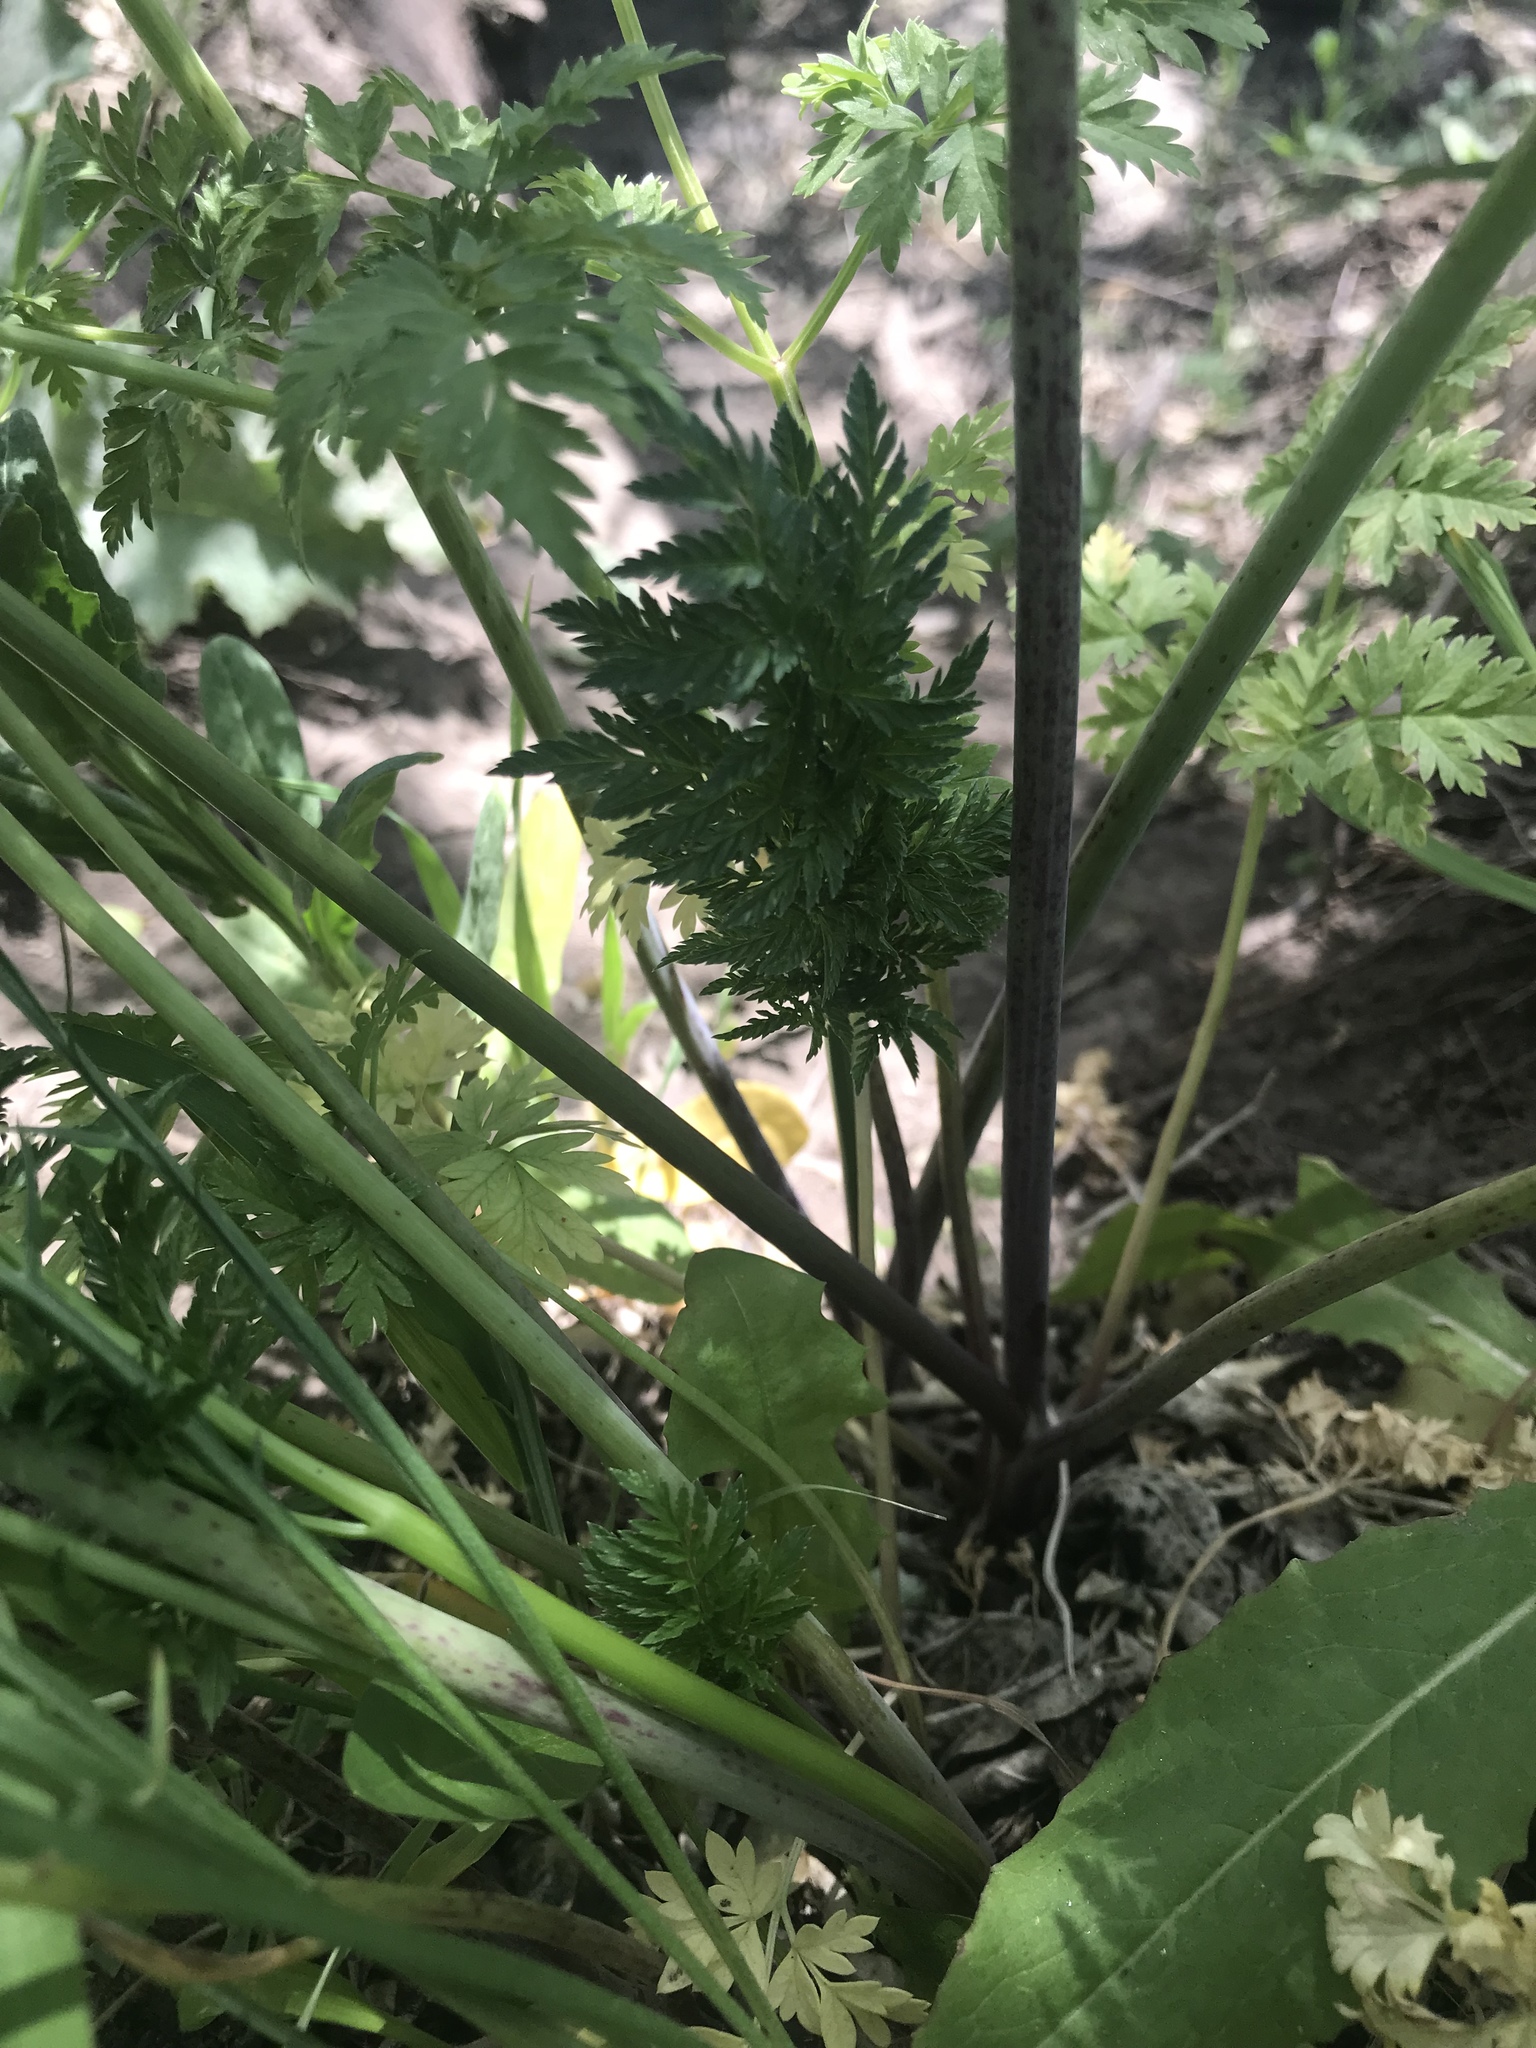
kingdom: Plantae
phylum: Tracheophyta
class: Magnoliopsida
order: Apiales
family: Apiaceae
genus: Conium
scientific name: Conium maculatum
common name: Hemlock
